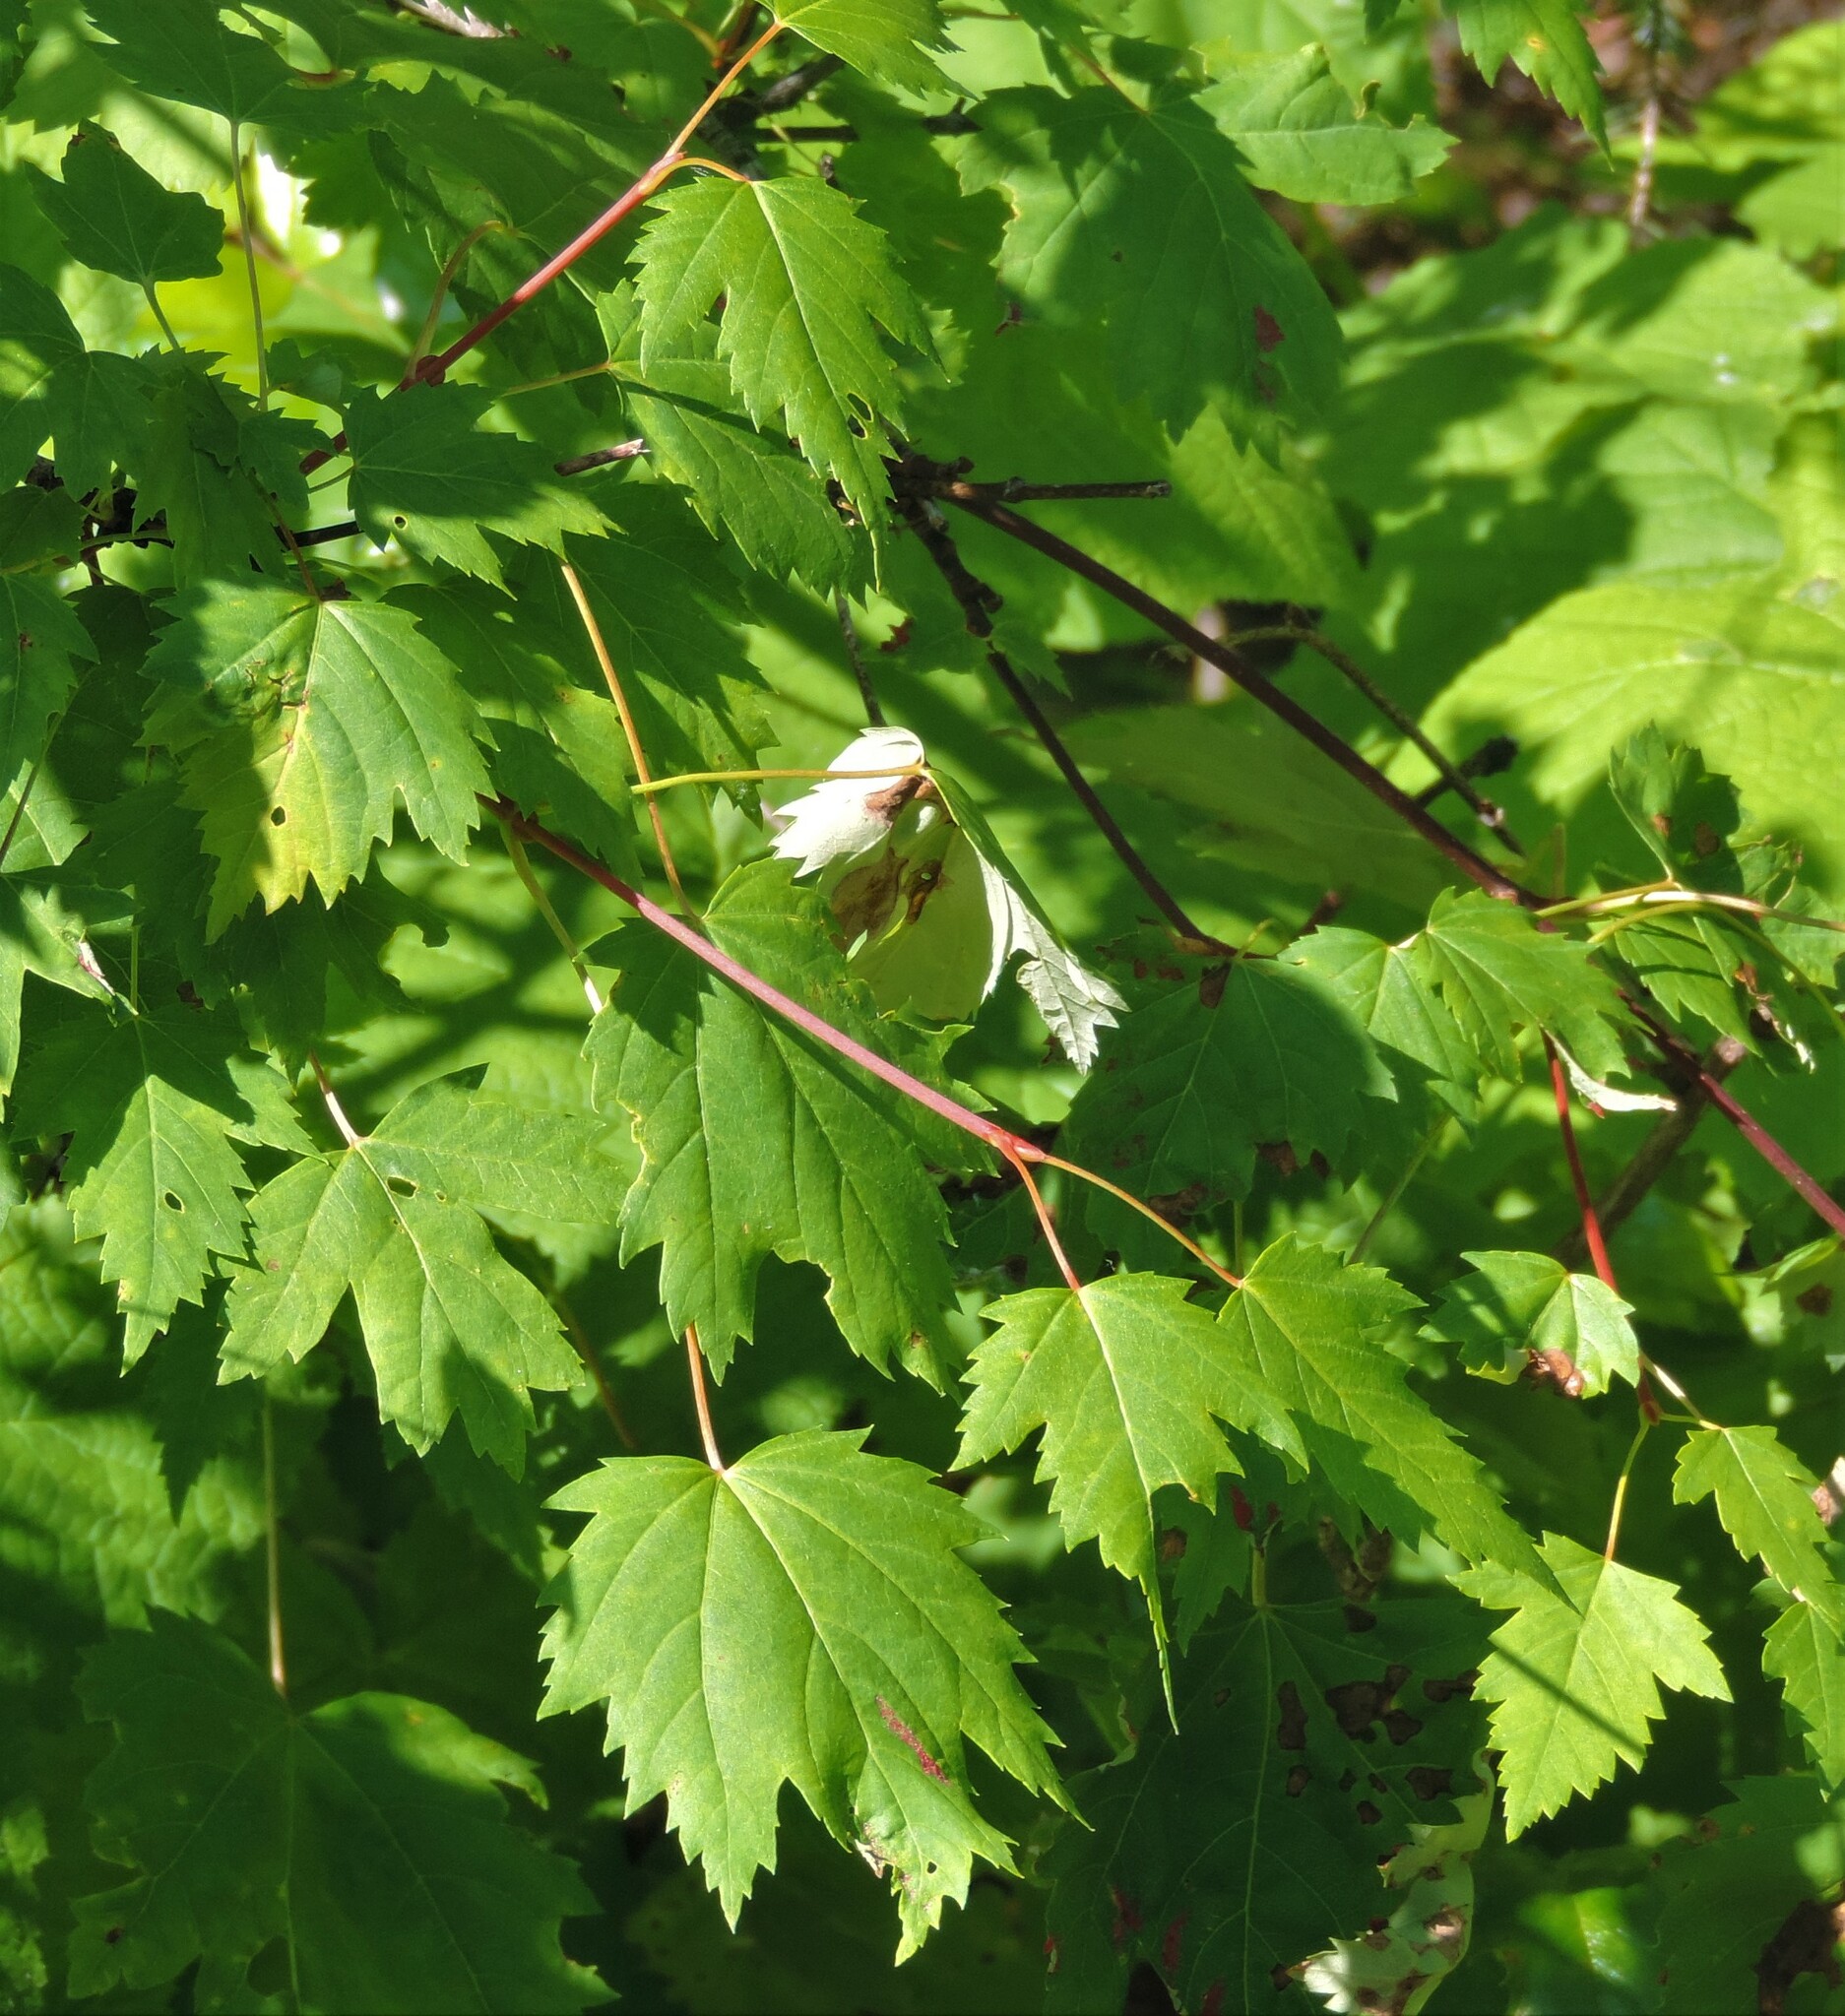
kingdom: Plantae
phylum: Tracheophyta
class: Magnoliopsida
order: Sapindales
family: Sapindaceae
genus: Acer
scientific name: Acer glabrum
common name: Rocky mountain maple
